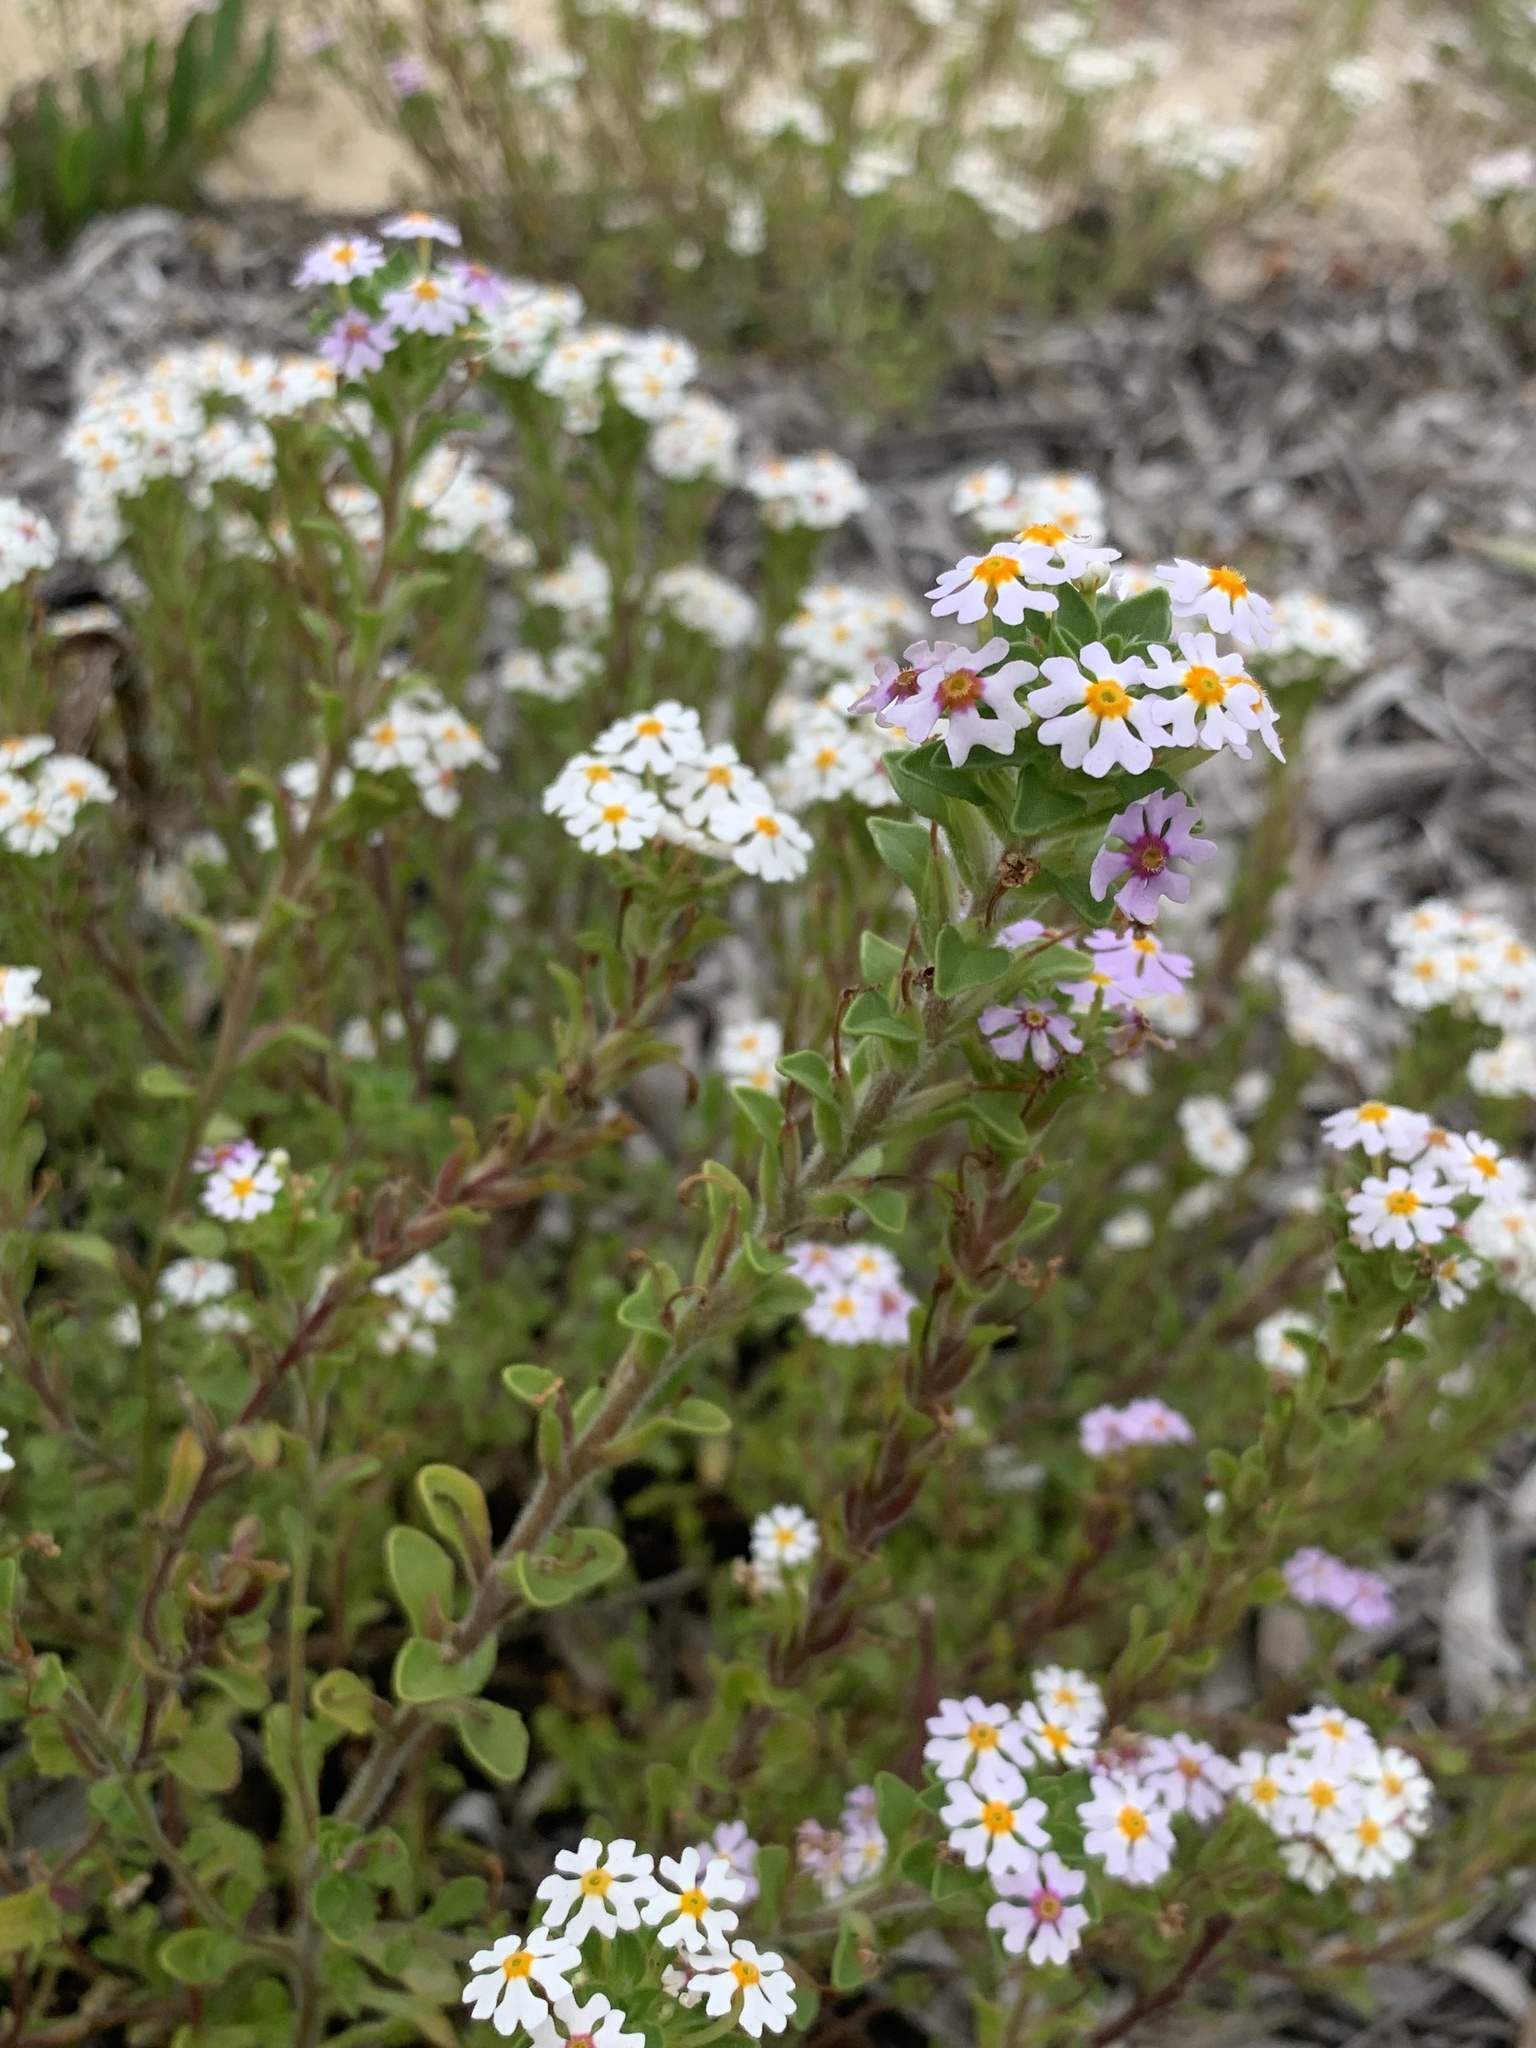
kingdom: Plantae
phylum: Tracheophyta
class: Magnoliopsida
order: Lamiales
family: Scrophulariaceae
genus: Zaluzianskya
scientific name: Zaluzianskya villosa
